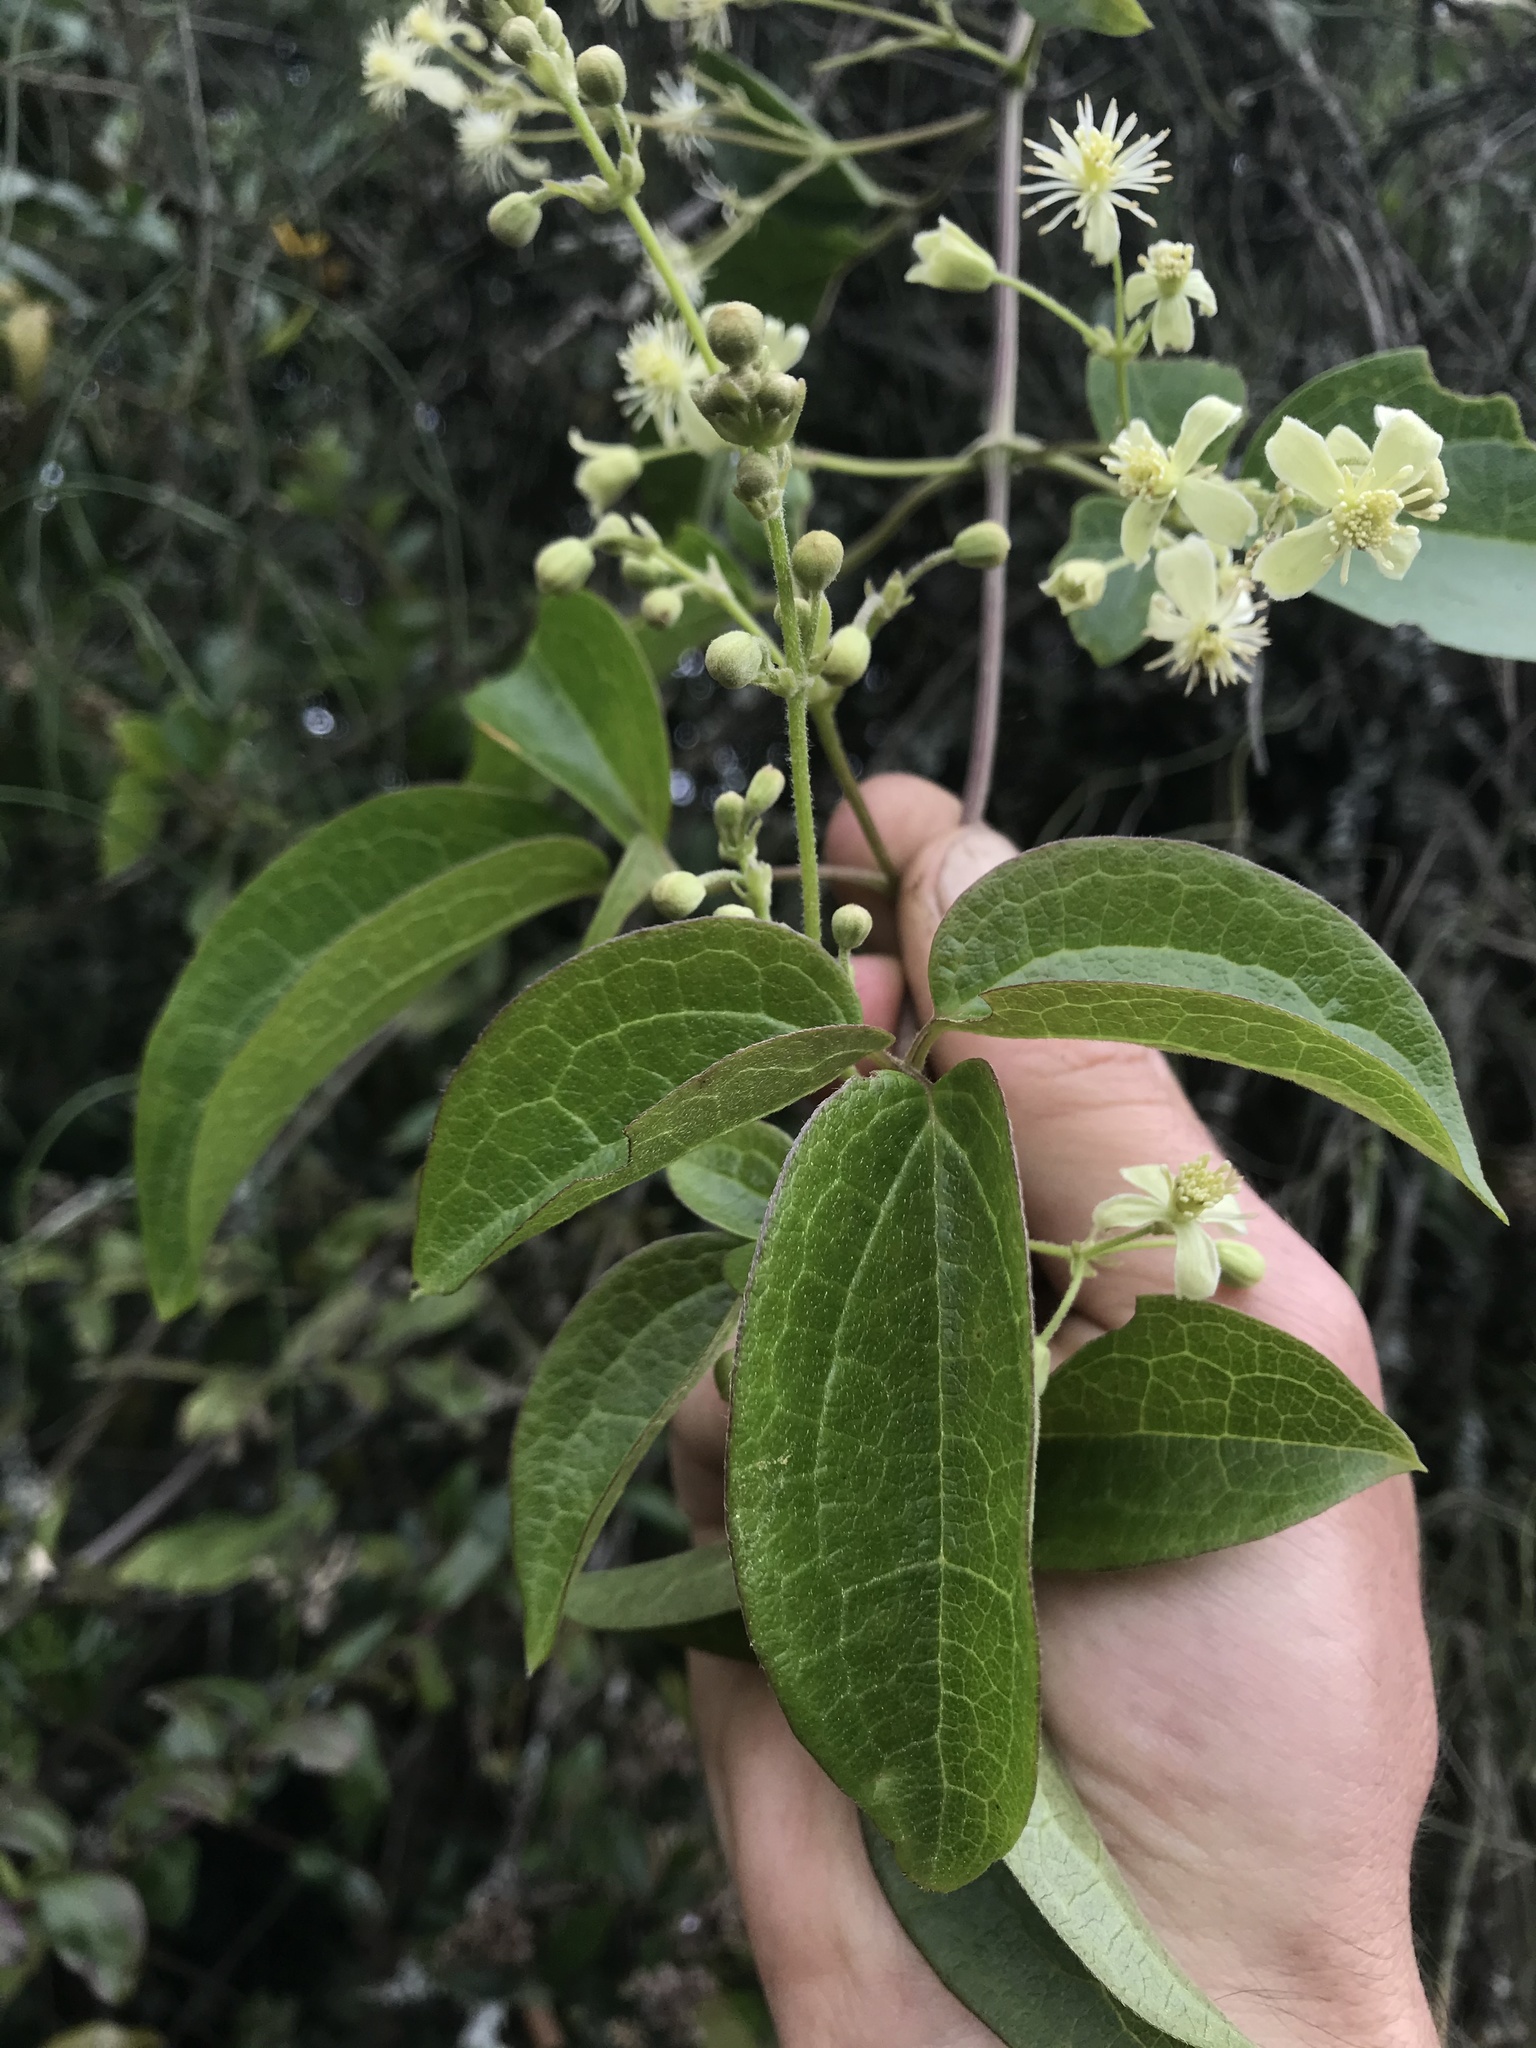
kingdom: Plantae
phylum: Tracheophyta
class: Magnoliopsida
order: Ranunculales
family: Ranunculaceae
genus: Clematis
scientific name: Clematis haenkeana
